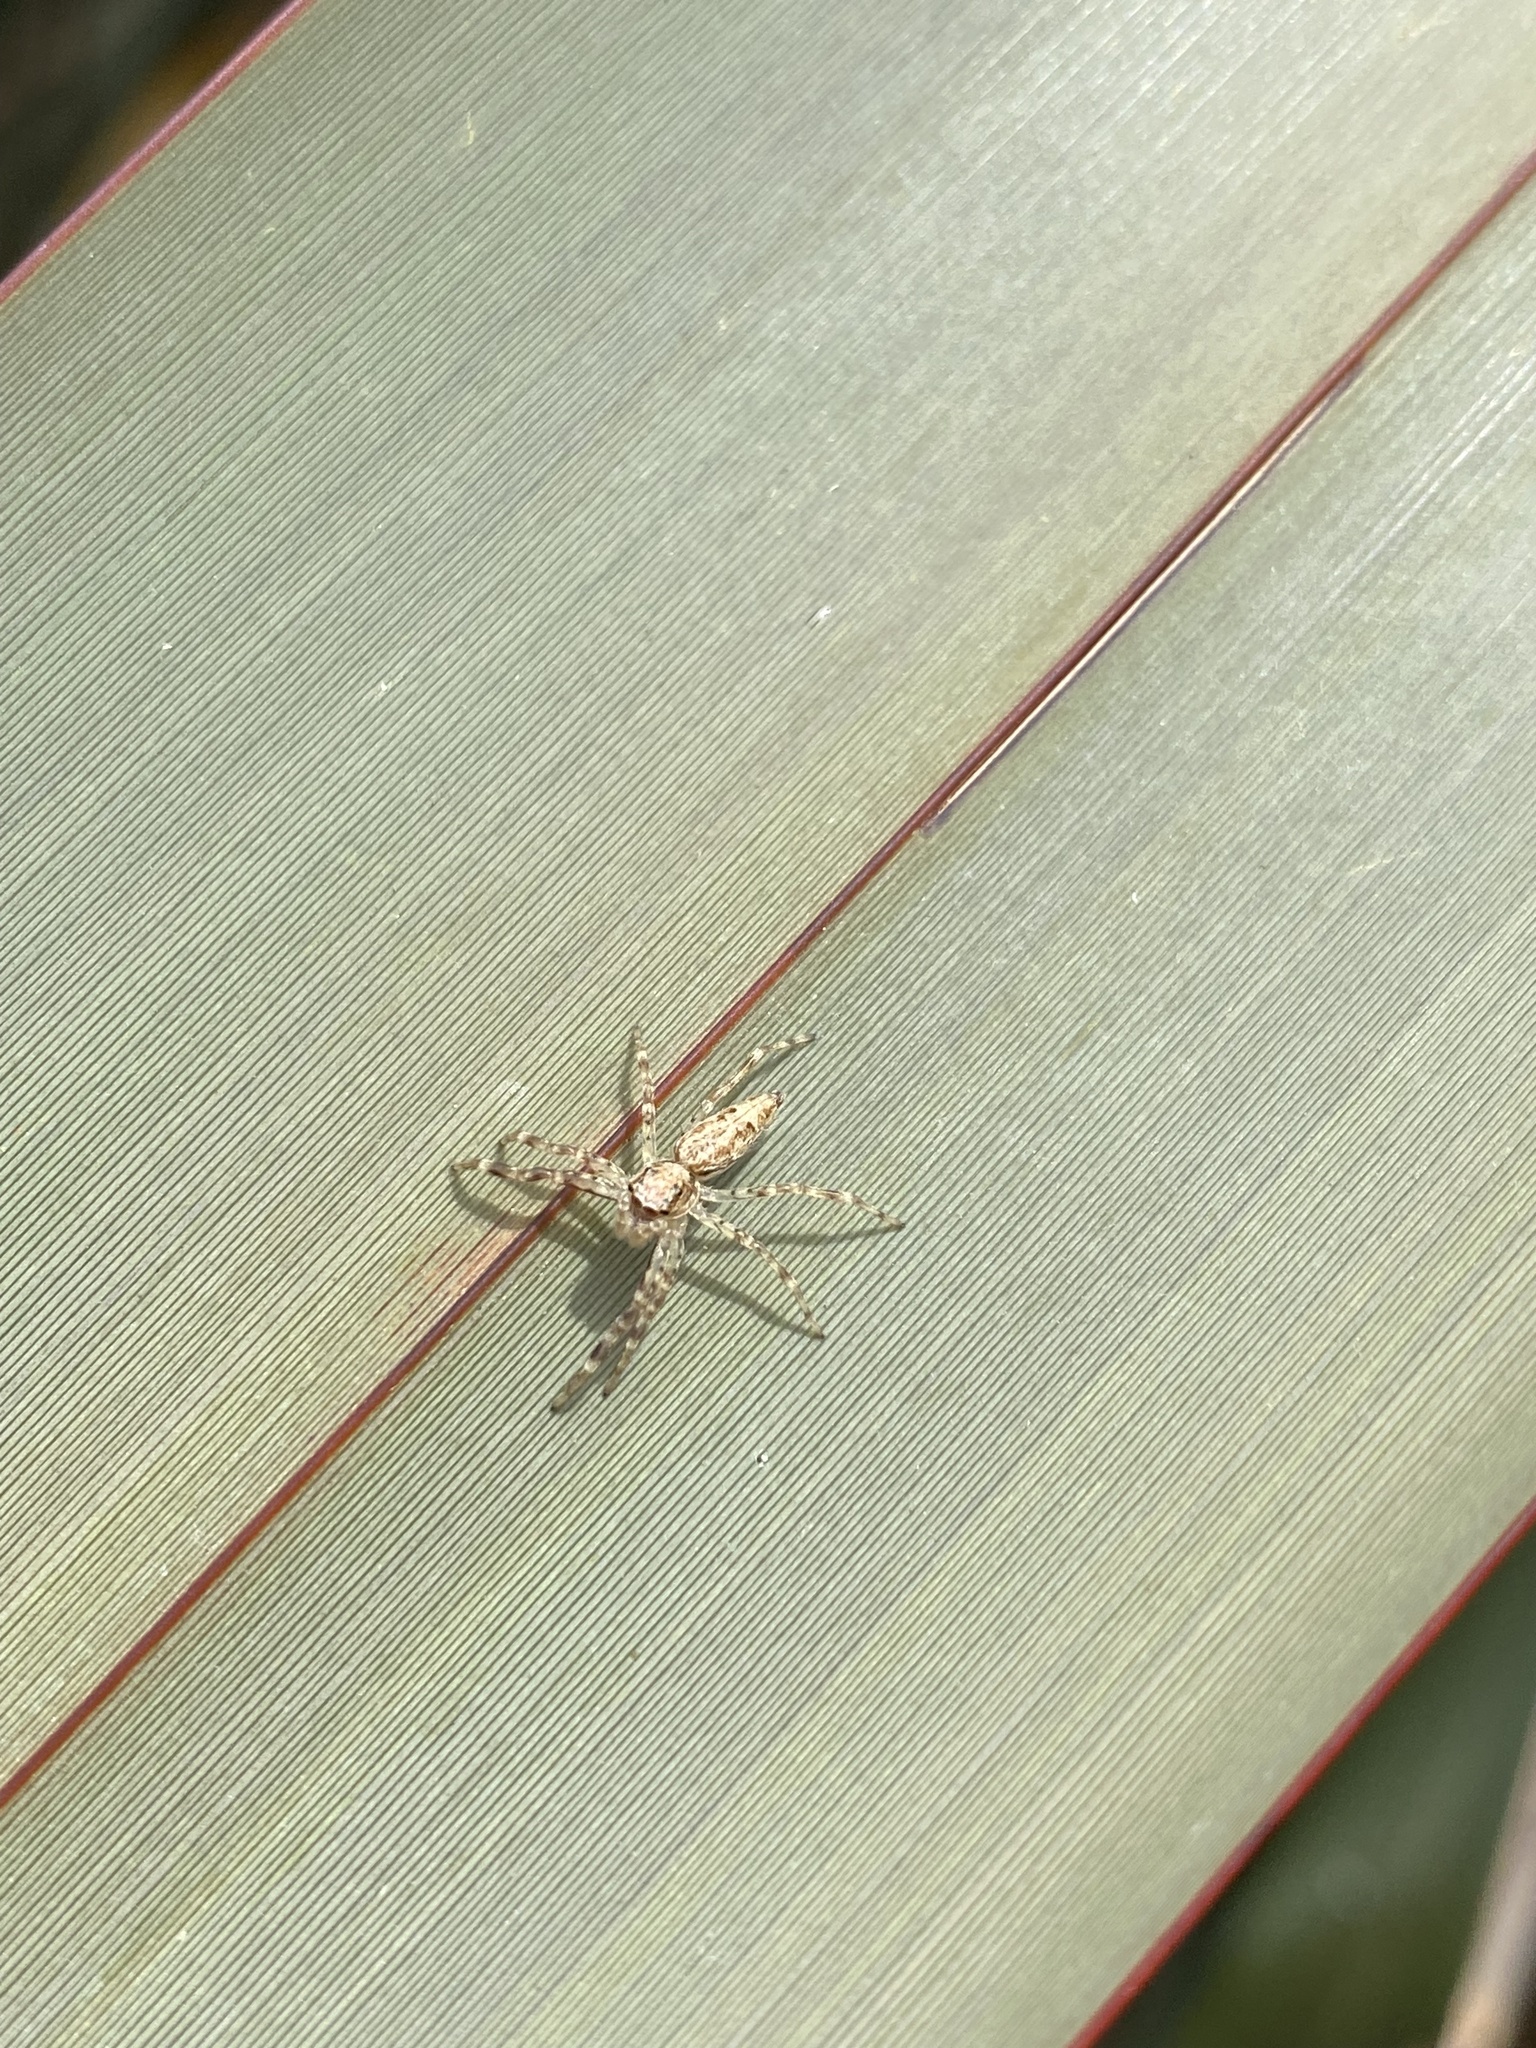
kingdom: Animalia
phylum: Arthropoda
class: Arachnida
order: Araneae
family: Salticidae
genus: Helpis
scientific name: Helpis minitabunda
